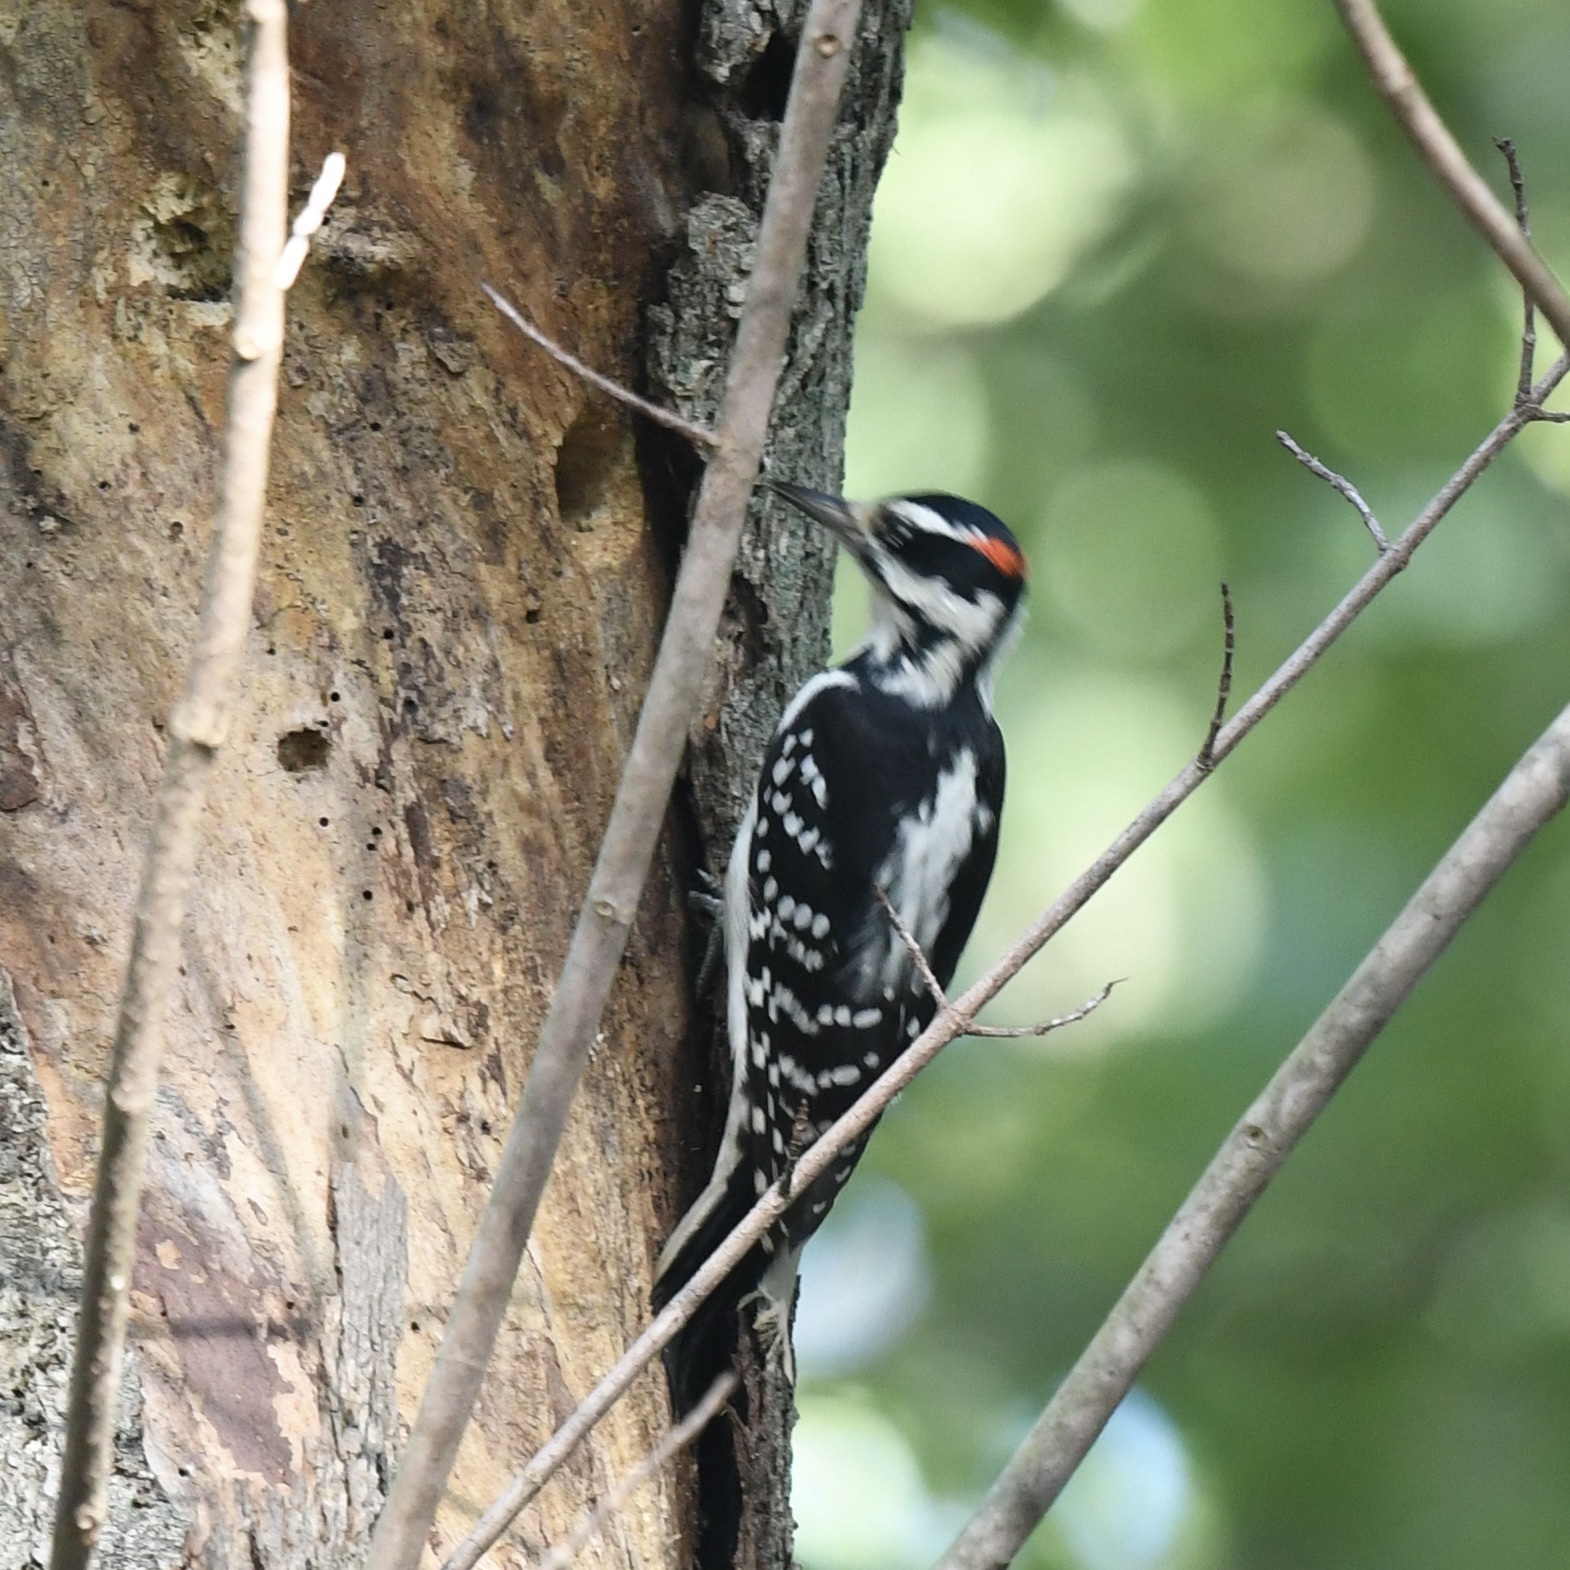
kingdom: Animalia
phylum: Chordata
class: Aves
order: Piciformes
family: Picidae
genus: Leuconotopicus
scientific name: Leuconotopicus villosus
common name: Hairy woodpecker
